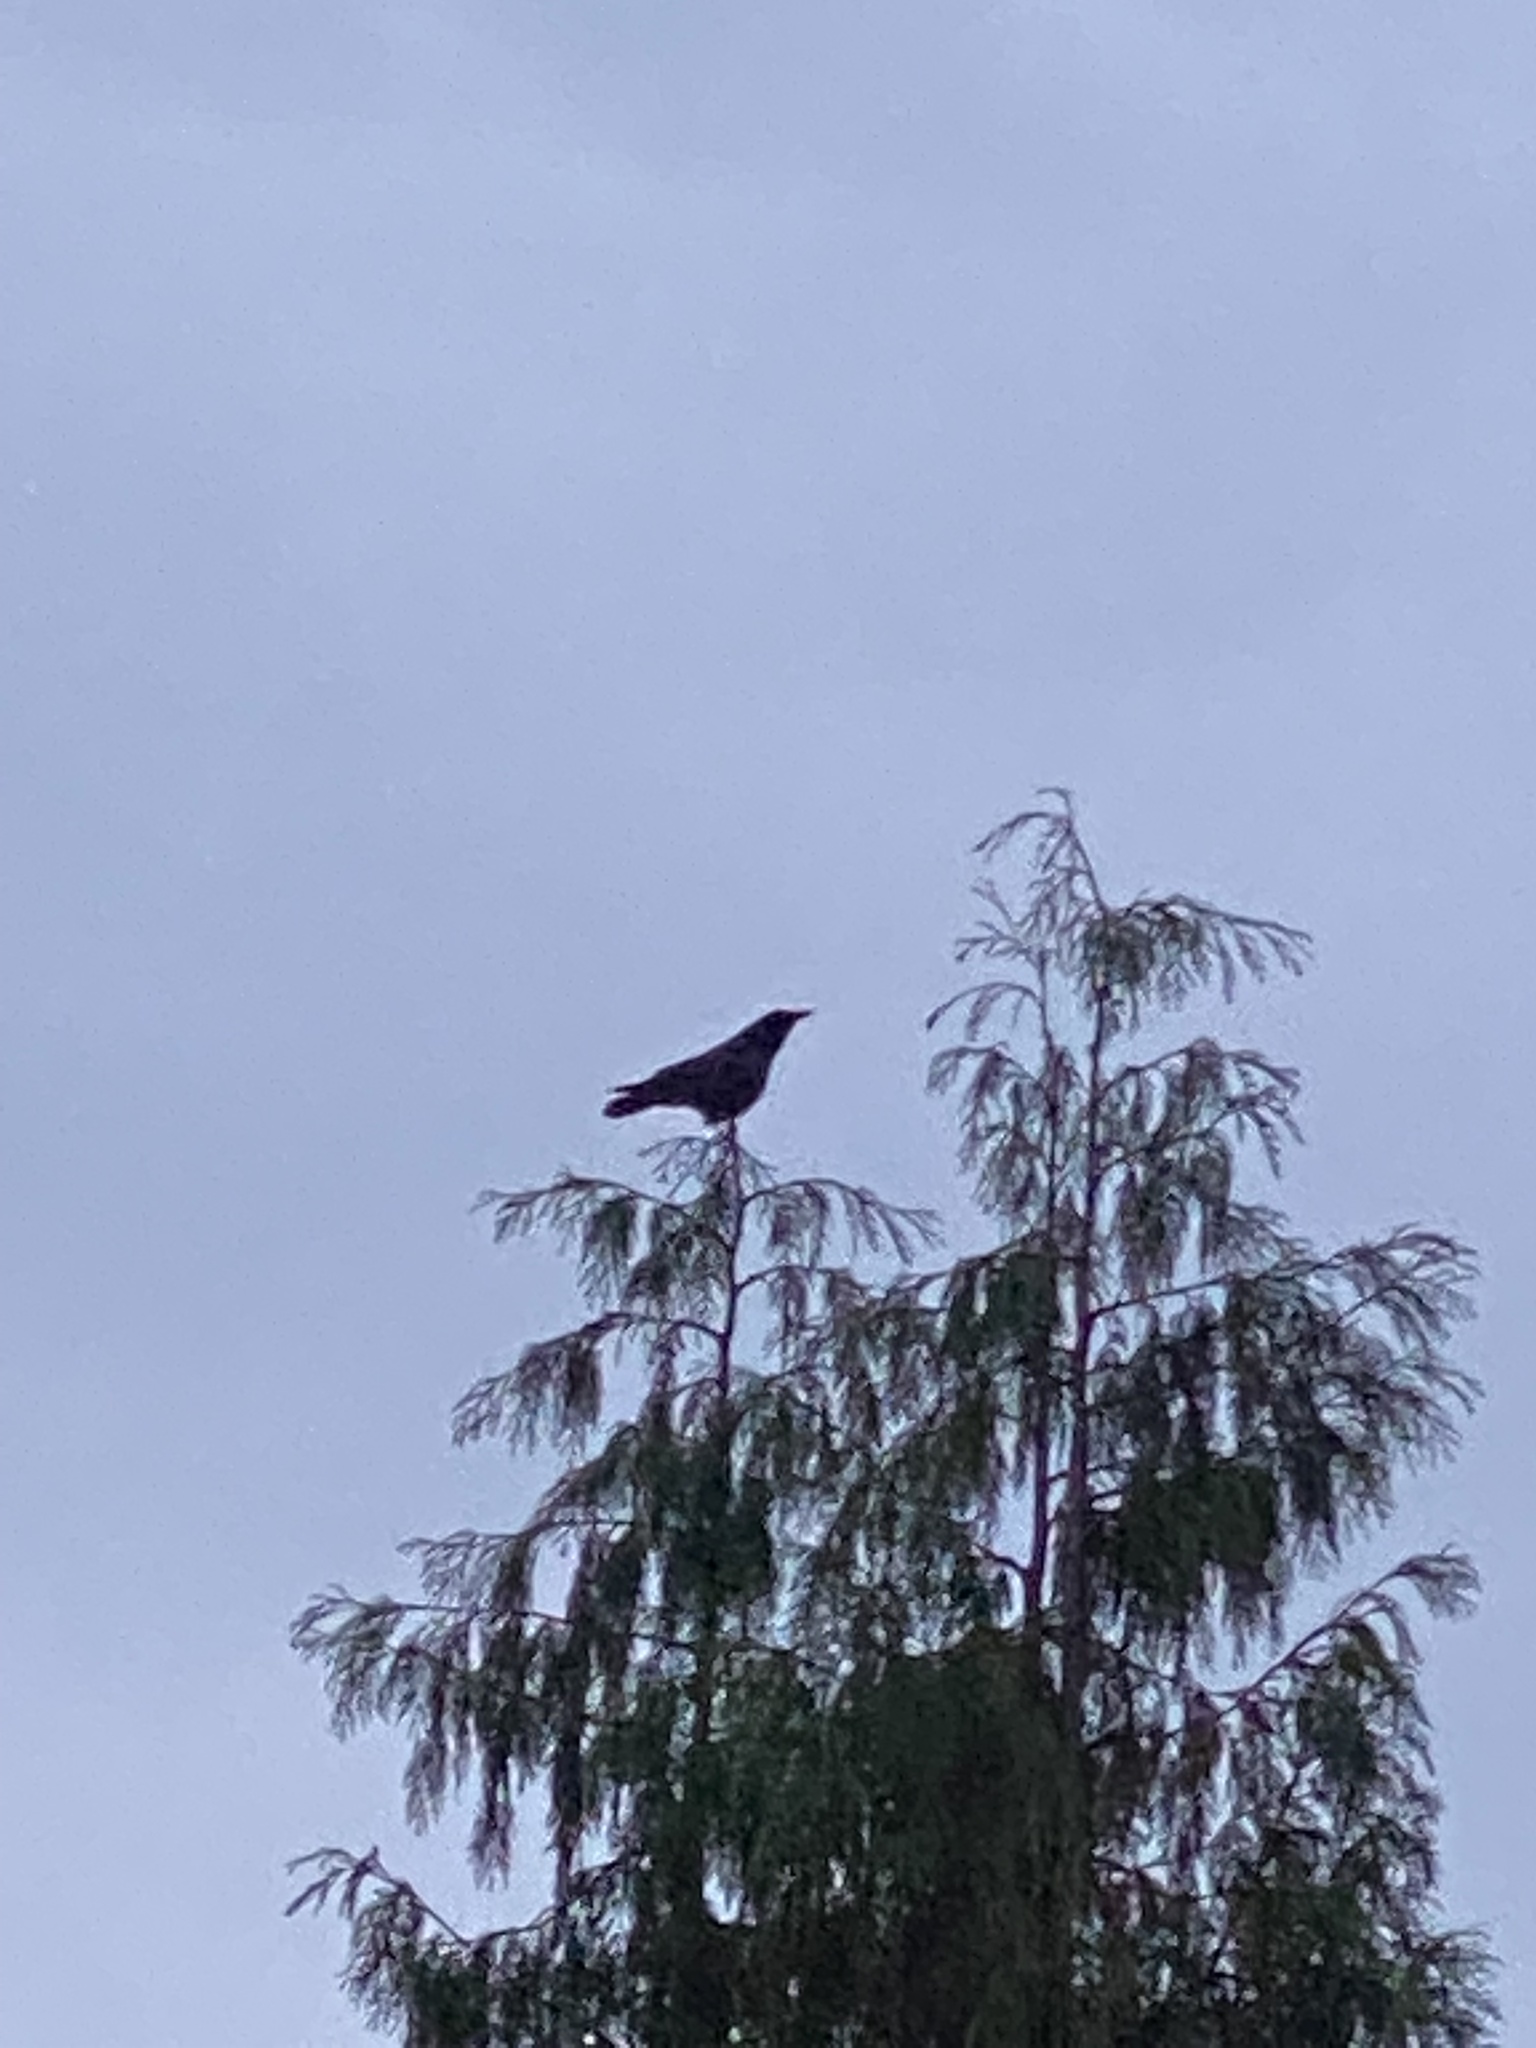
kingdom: Animalia
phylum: Chordata
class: Aves
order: Passeriformes
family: Corvidae
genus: Corvus
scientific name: Corvus brachyrhynchos
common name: American crow
